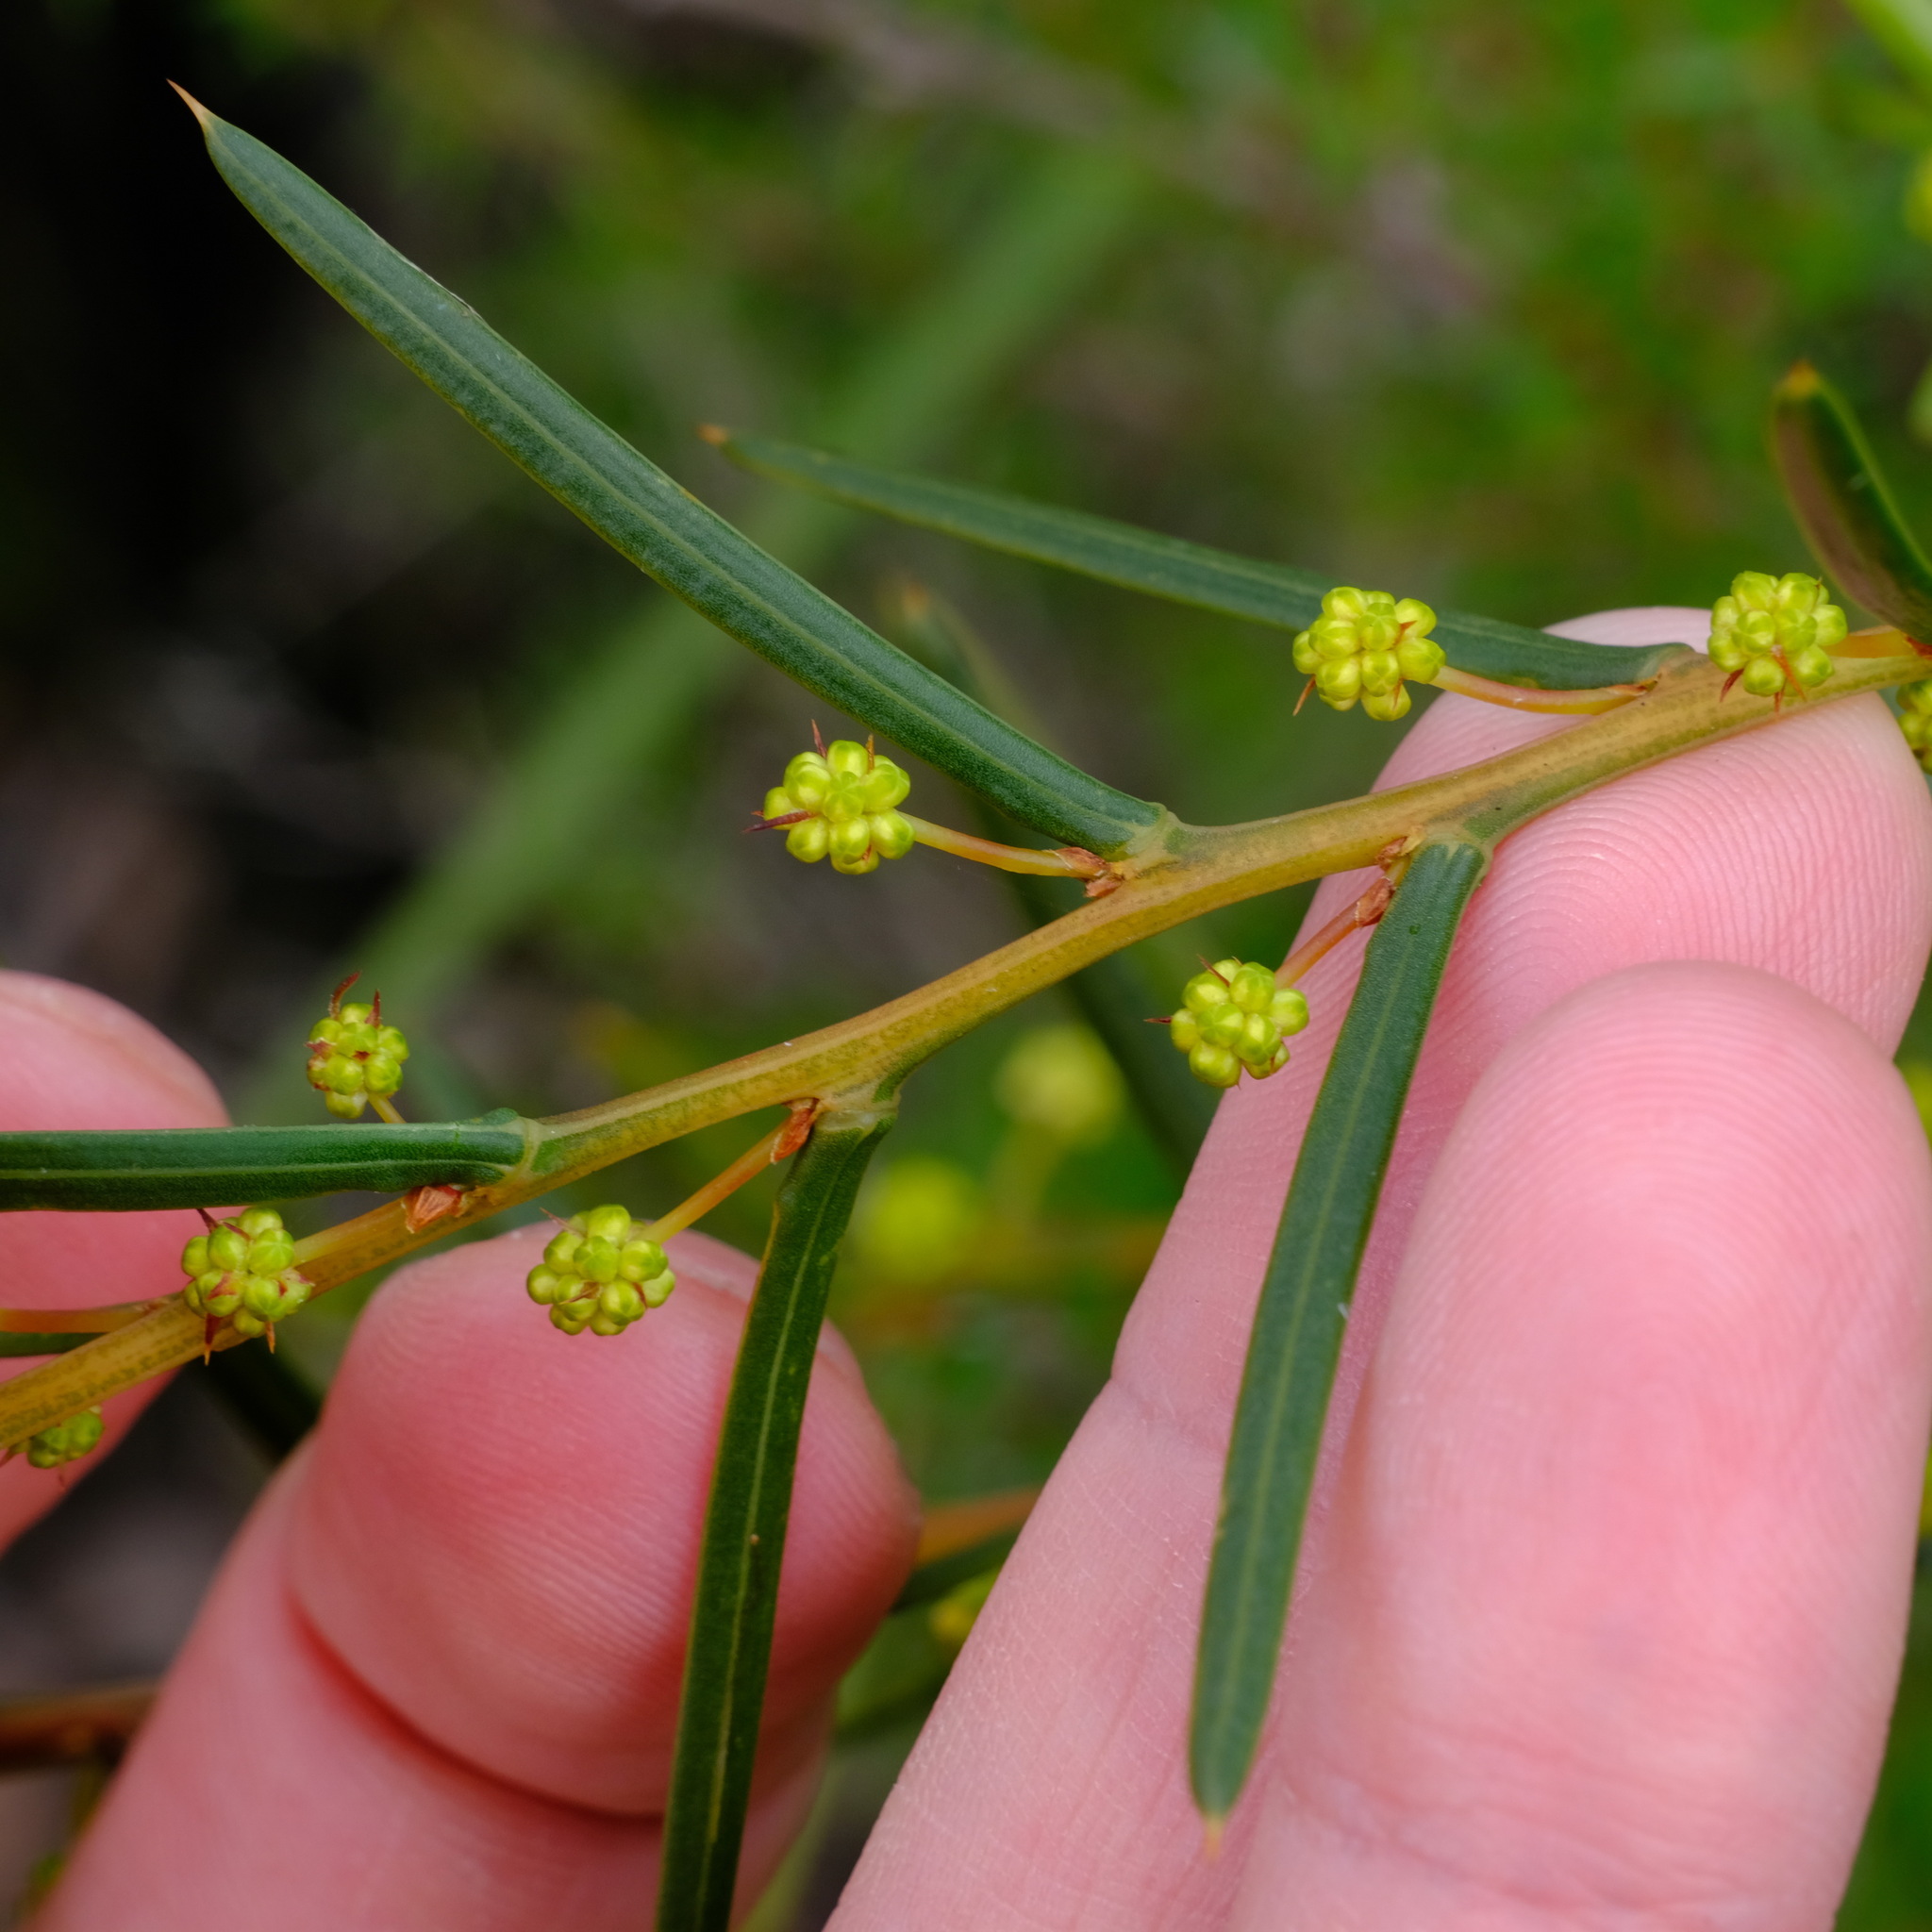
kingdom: Plantae
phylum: Tracheophyta
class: Magnoliopsida
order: Fabales
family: Fabaceae
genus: Acacia
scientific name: Acacia genistifolia
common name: Early wattle
